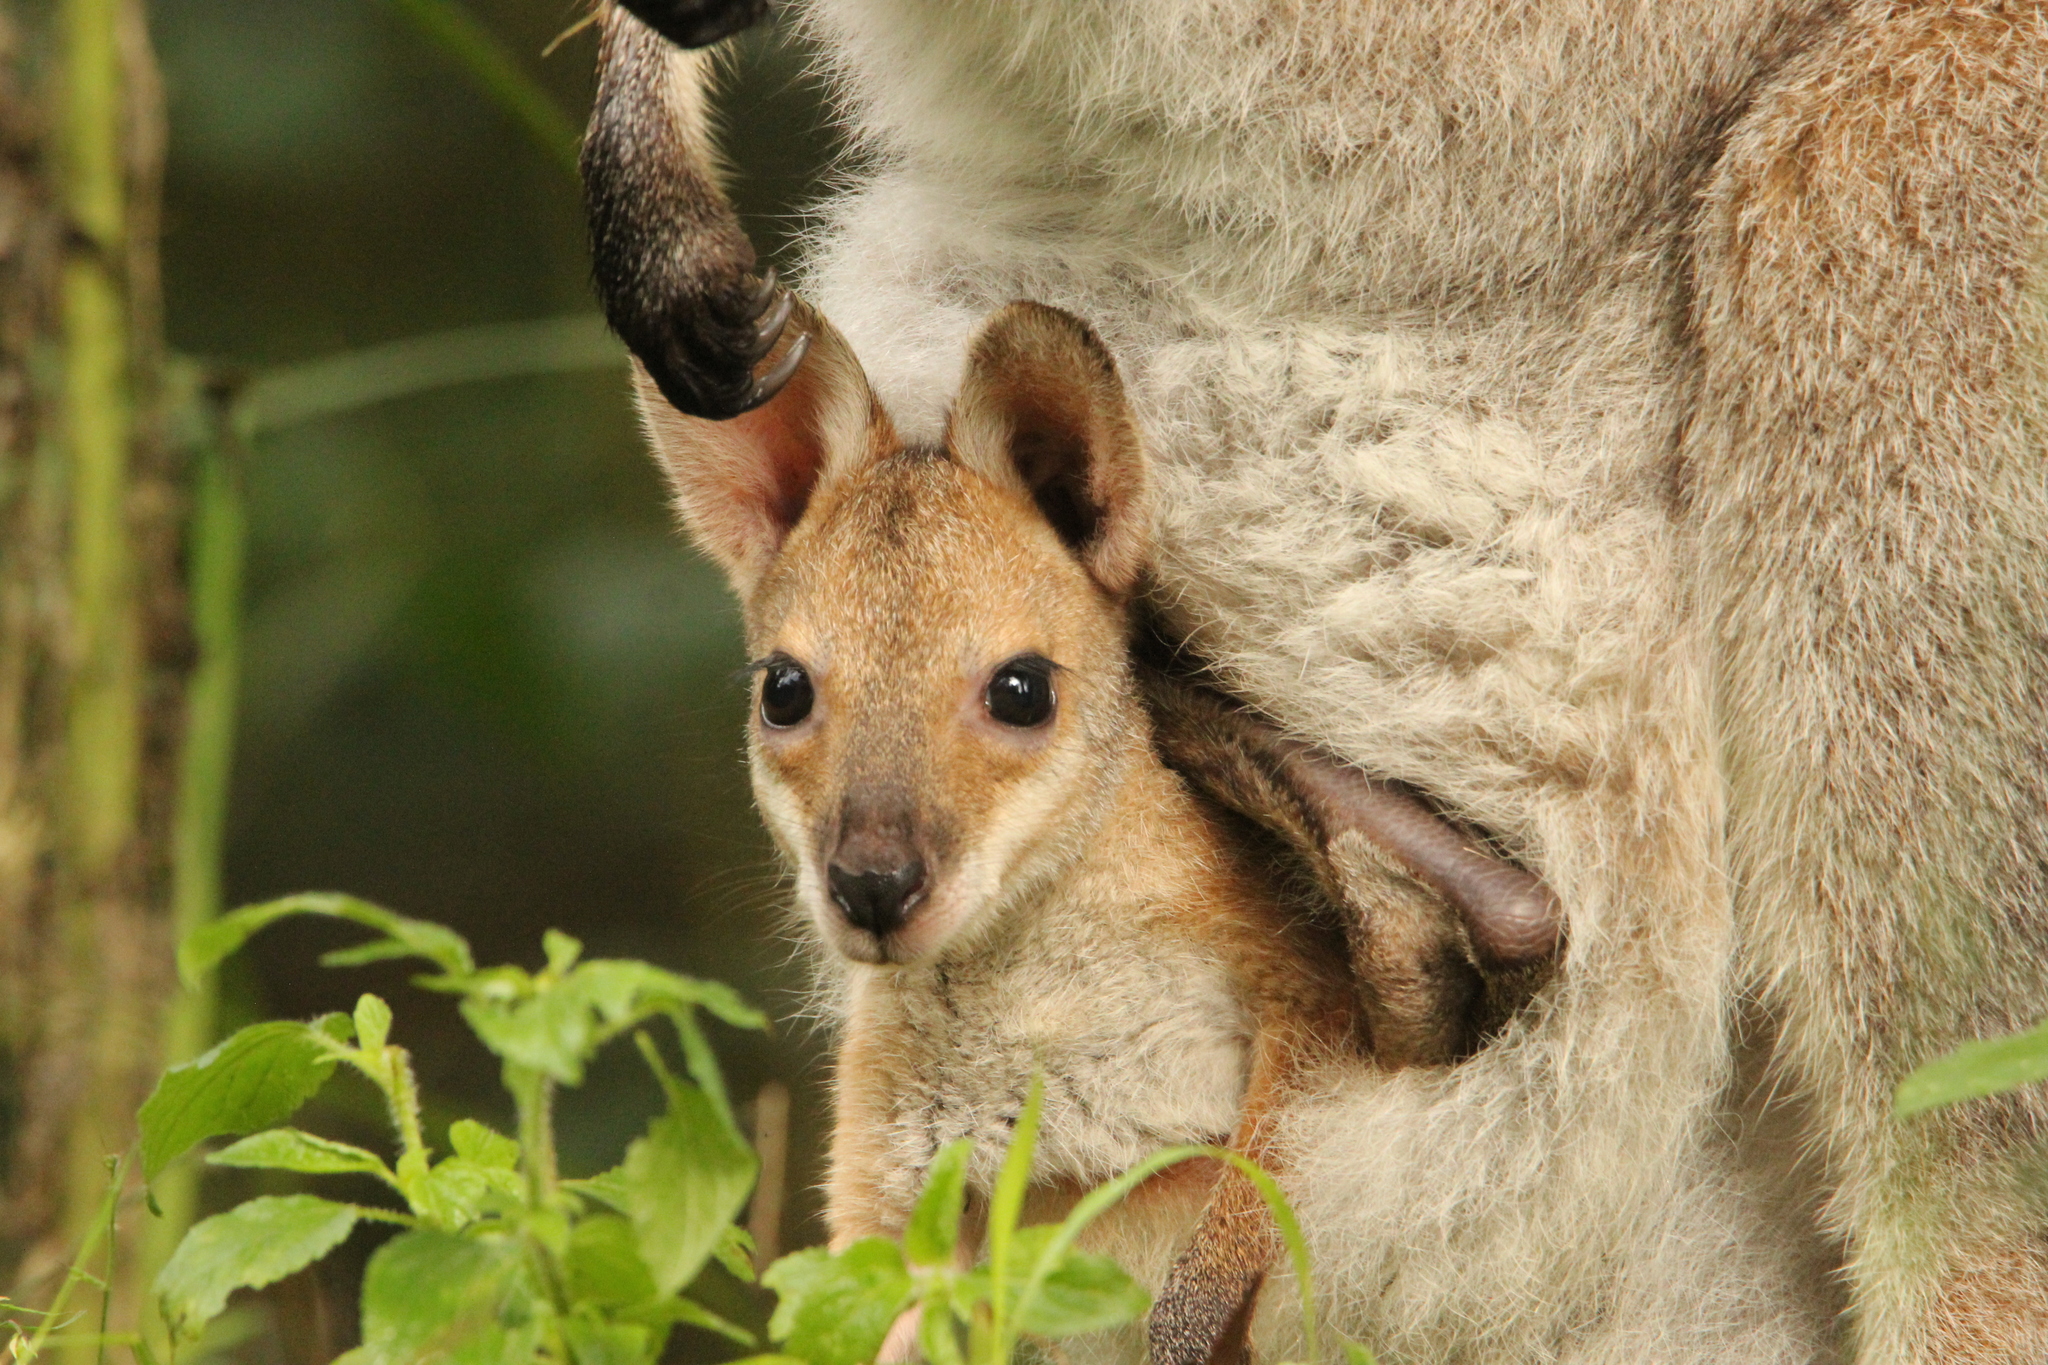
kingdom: Animalia
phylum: Chordata
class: Mammalia
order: Diprotodontia
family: Macropodidae
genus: Notamacropus
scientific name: Notamacropus rufogriseus
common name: Red-necked wallaby
